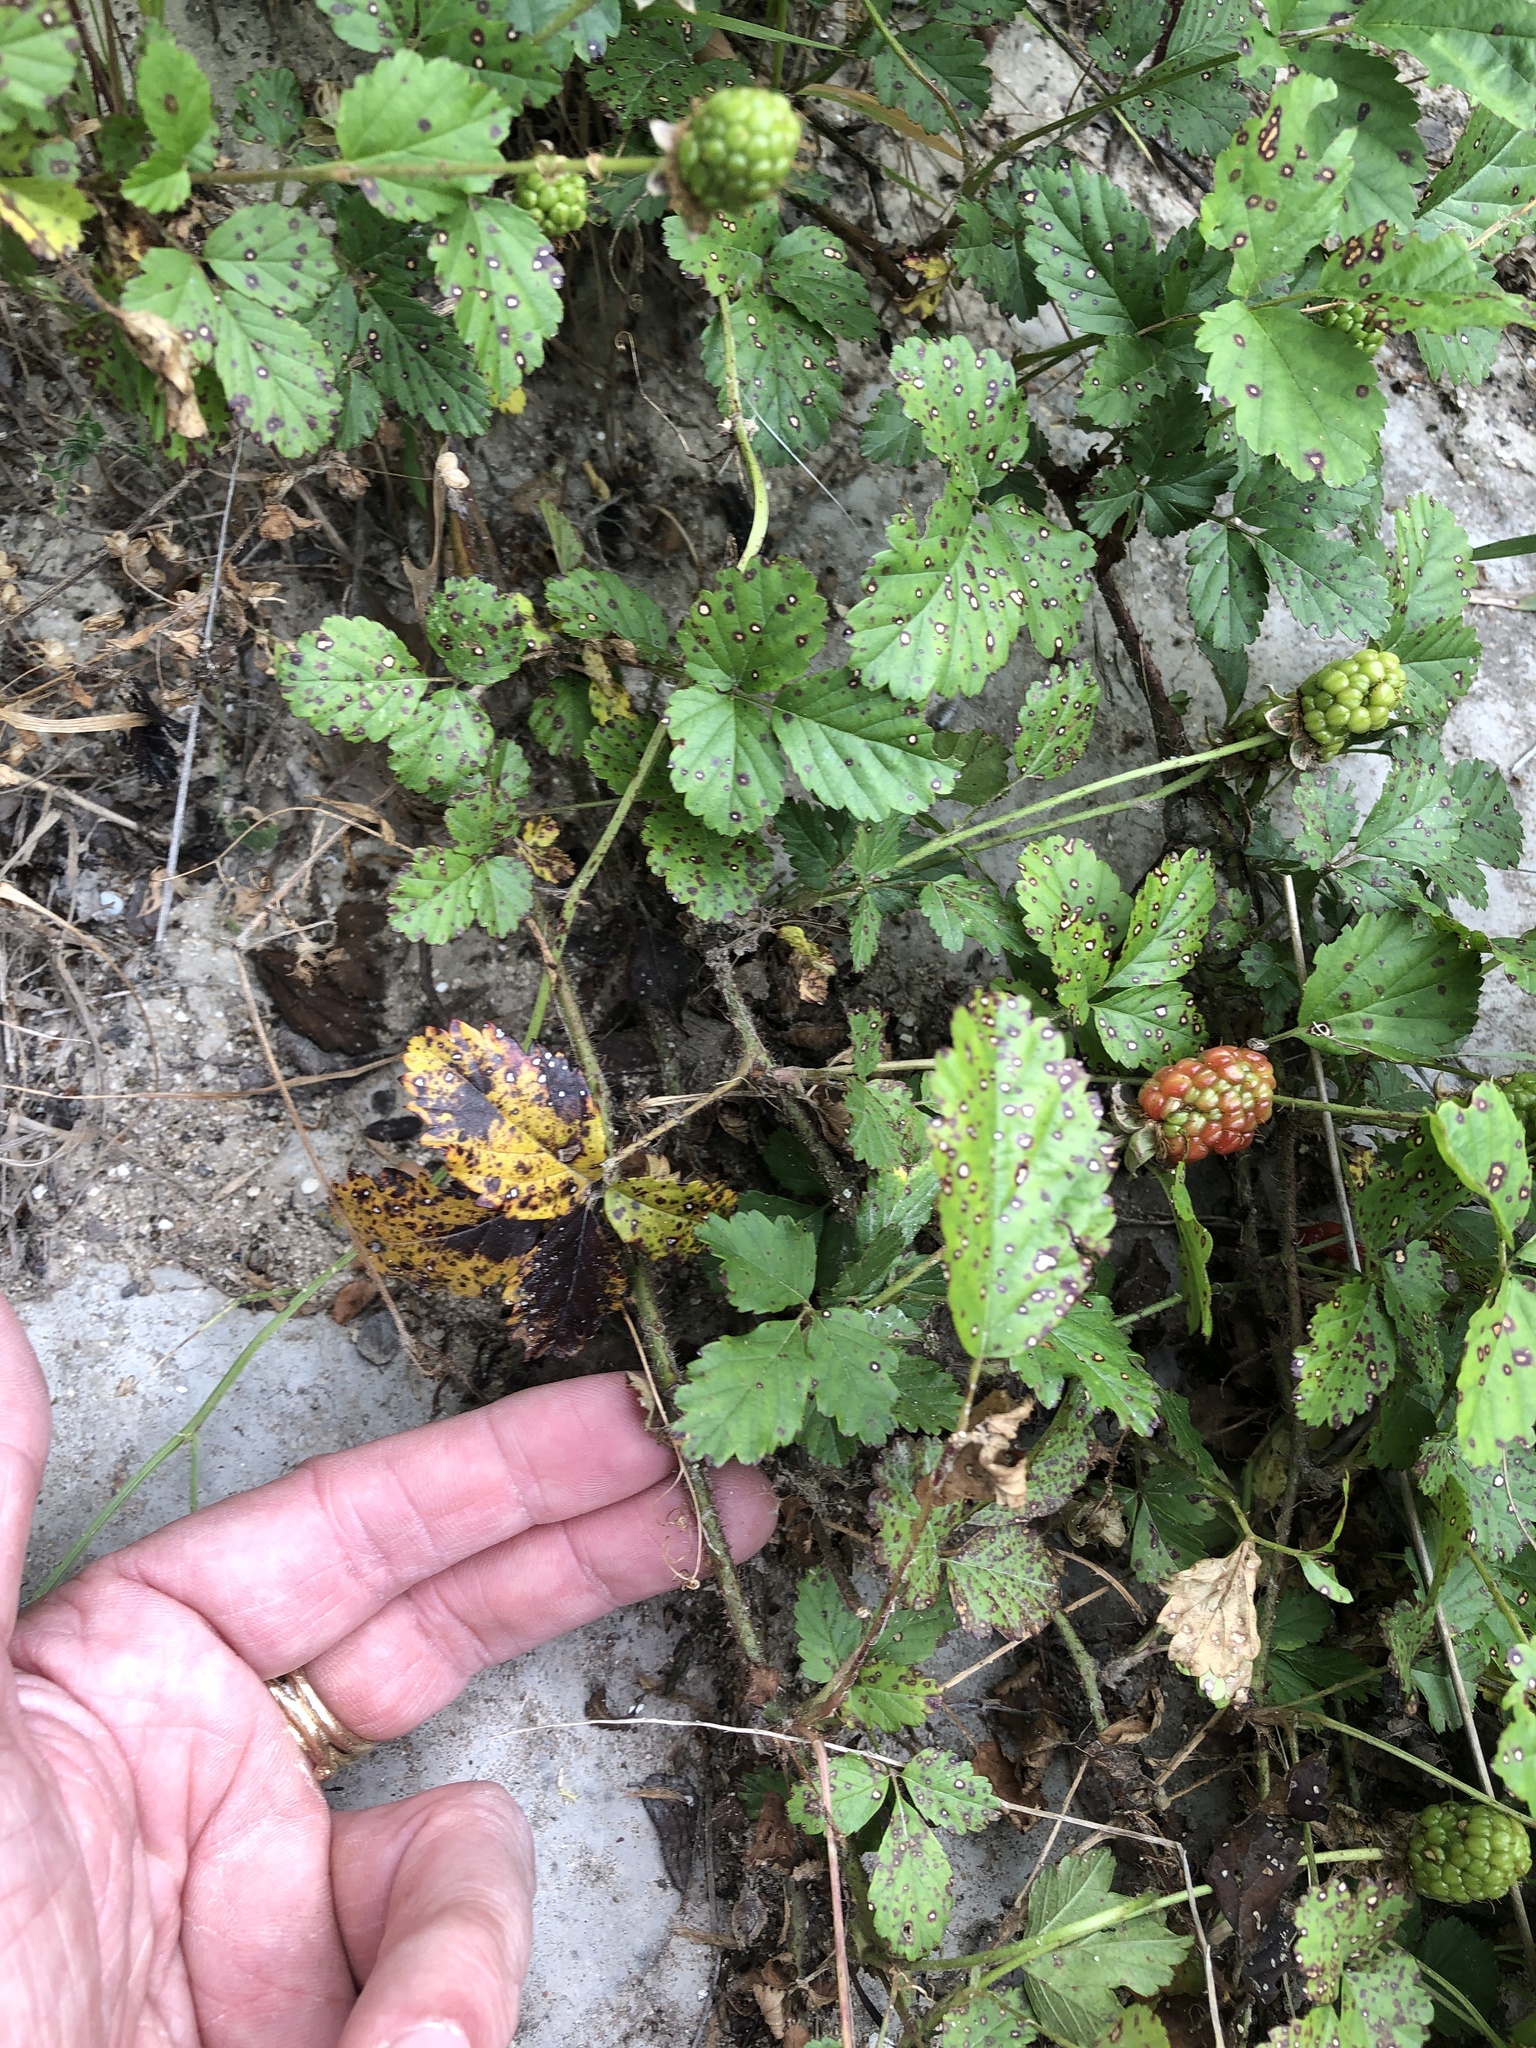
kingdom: Plantae
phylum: Tracheophyta
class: Magnoliopsida
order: Rosales
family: Rosaceae
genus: Rubus
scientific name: Rubus trivialis
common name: Southern dewberry
